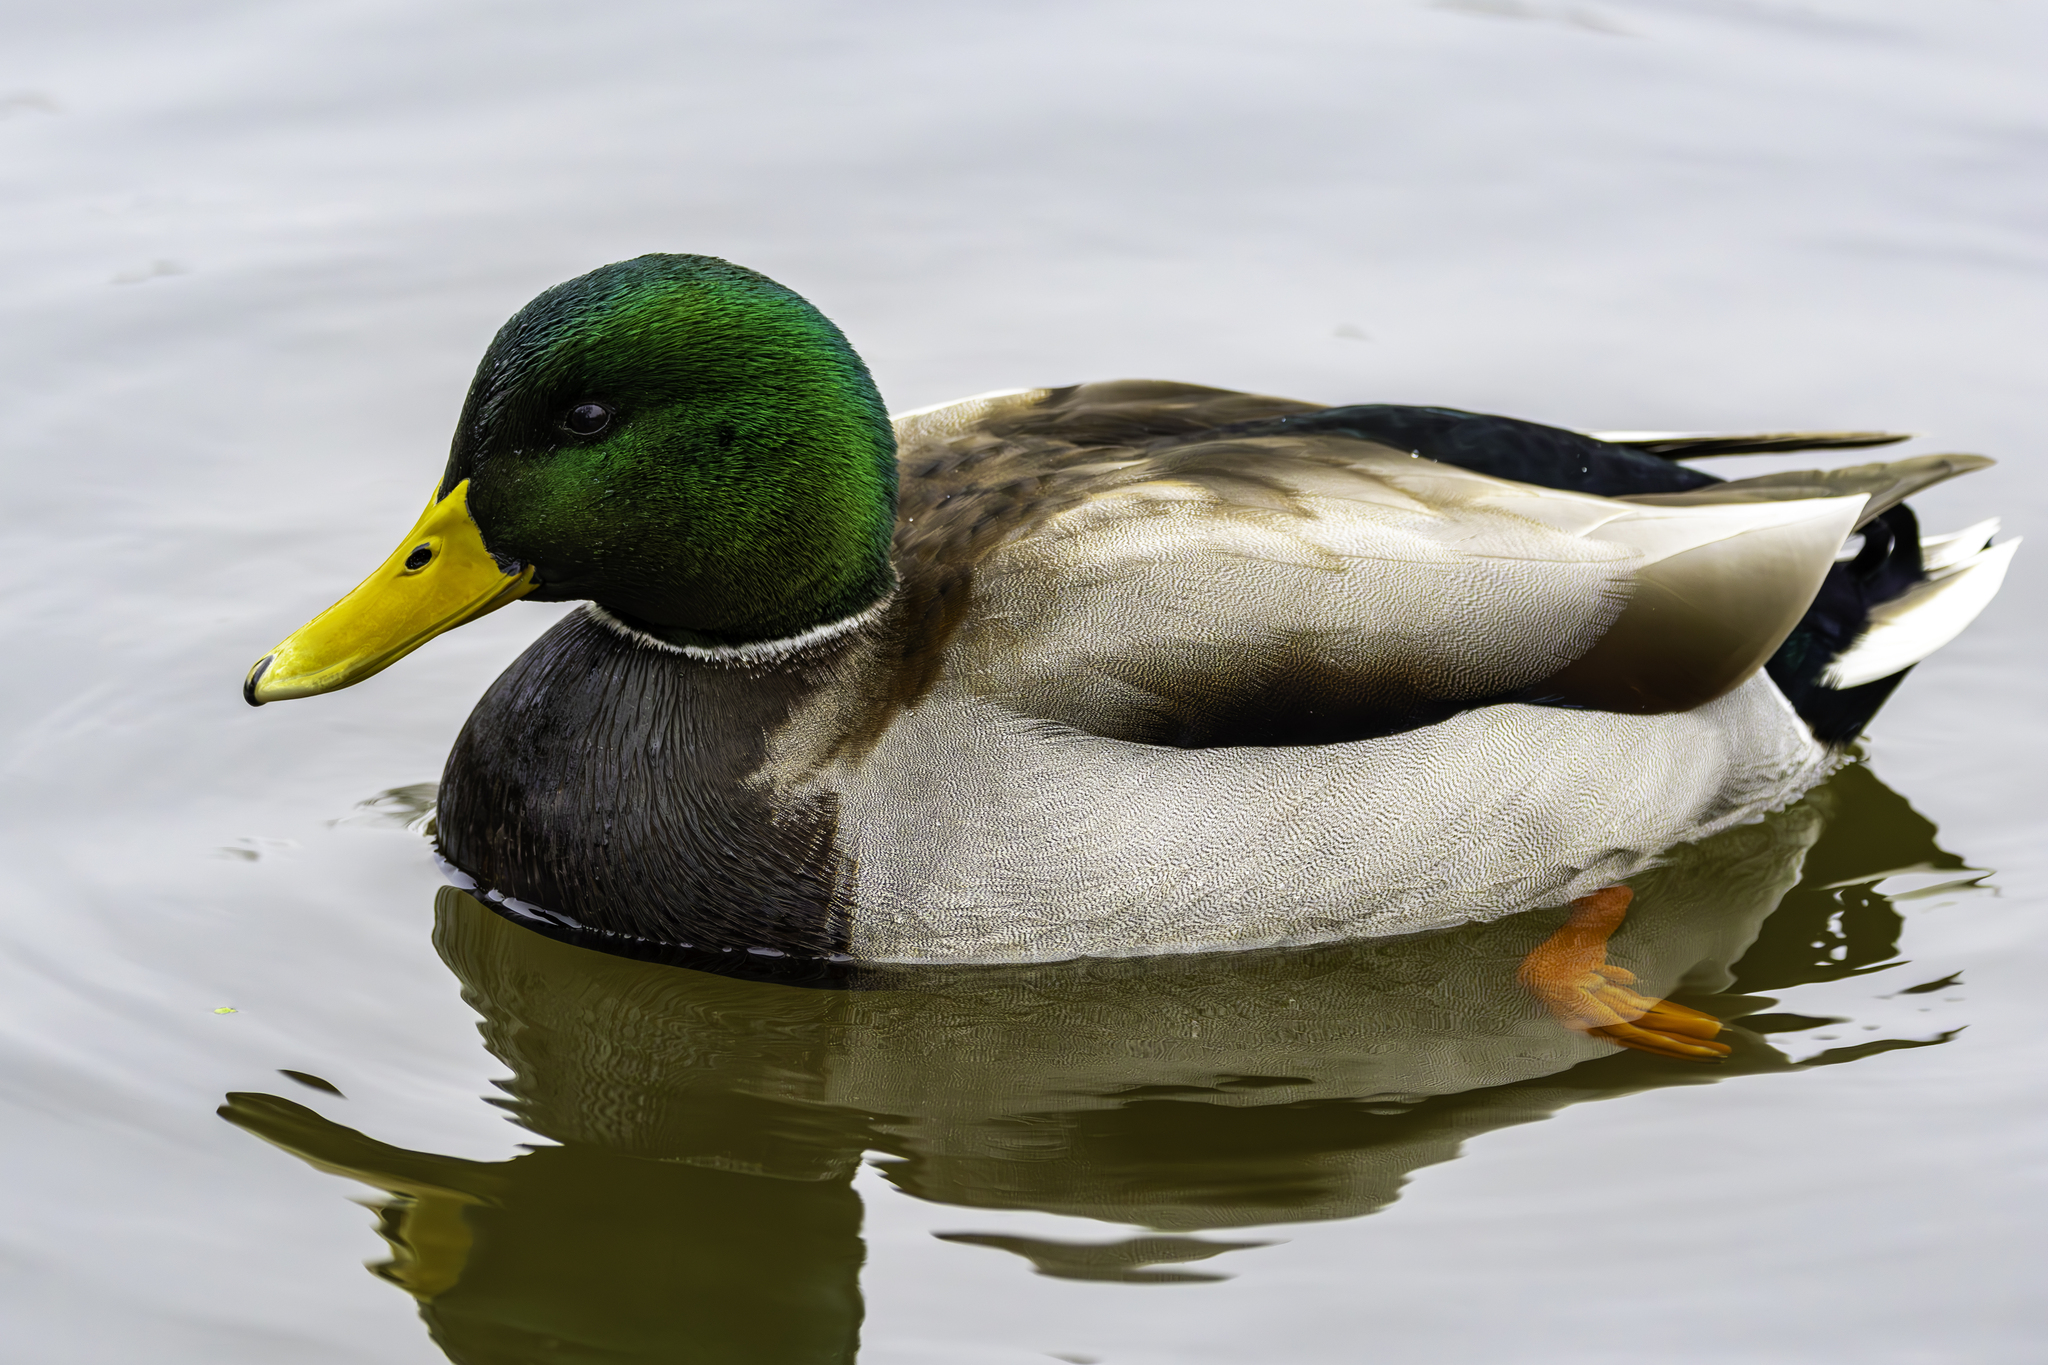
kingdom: Animalia
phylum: Chordata
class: Aves
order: Anseriformes
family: Anatidae
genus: Anas
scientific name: Anas platyrhynchos
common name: Mallard
